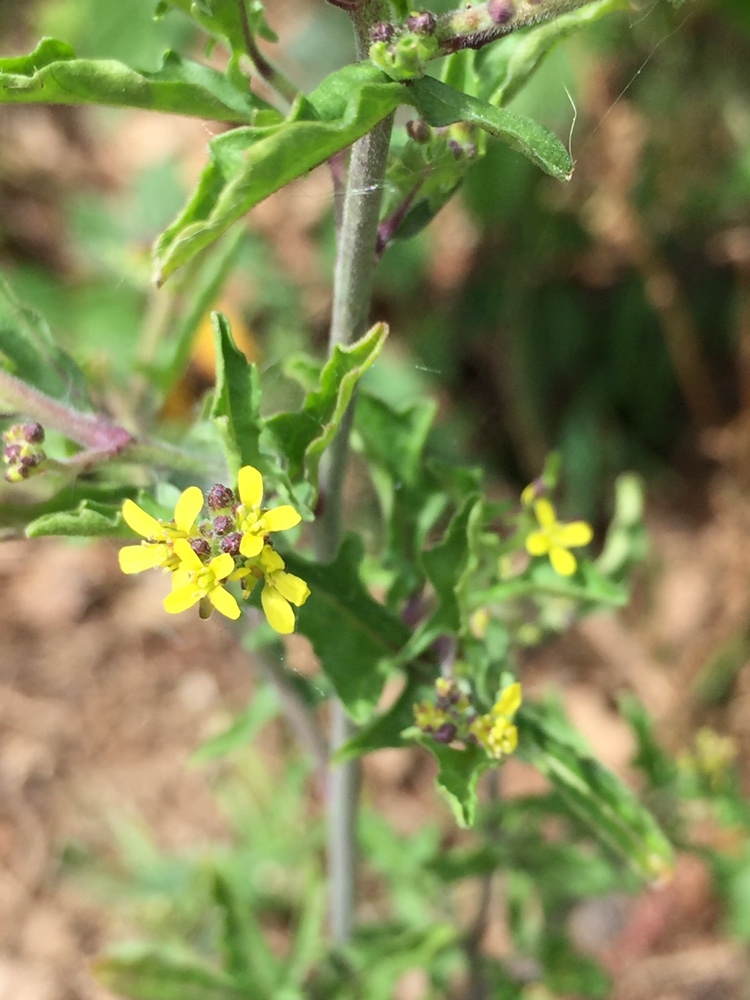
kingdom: Plantae
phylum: Tracheophyta
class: Magnoliopsida
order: Brassicales
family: Brassicaceae
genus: Sisymbrium
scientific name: Sisymbrium officinale
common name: Hedge mustard
